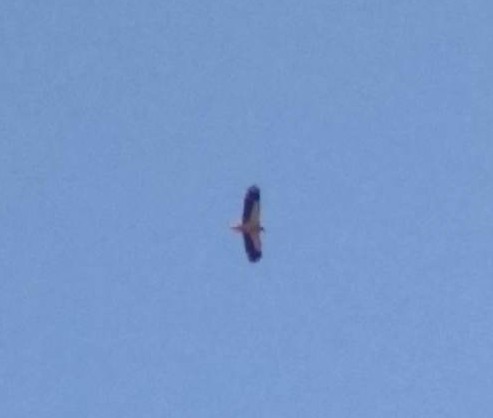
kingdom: Animalia
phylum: Chordata
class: Aves
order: Accipitriformes
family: Accipitridae
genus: Neophron
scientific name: Neophron percnopterus
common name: Egyptian vulture
